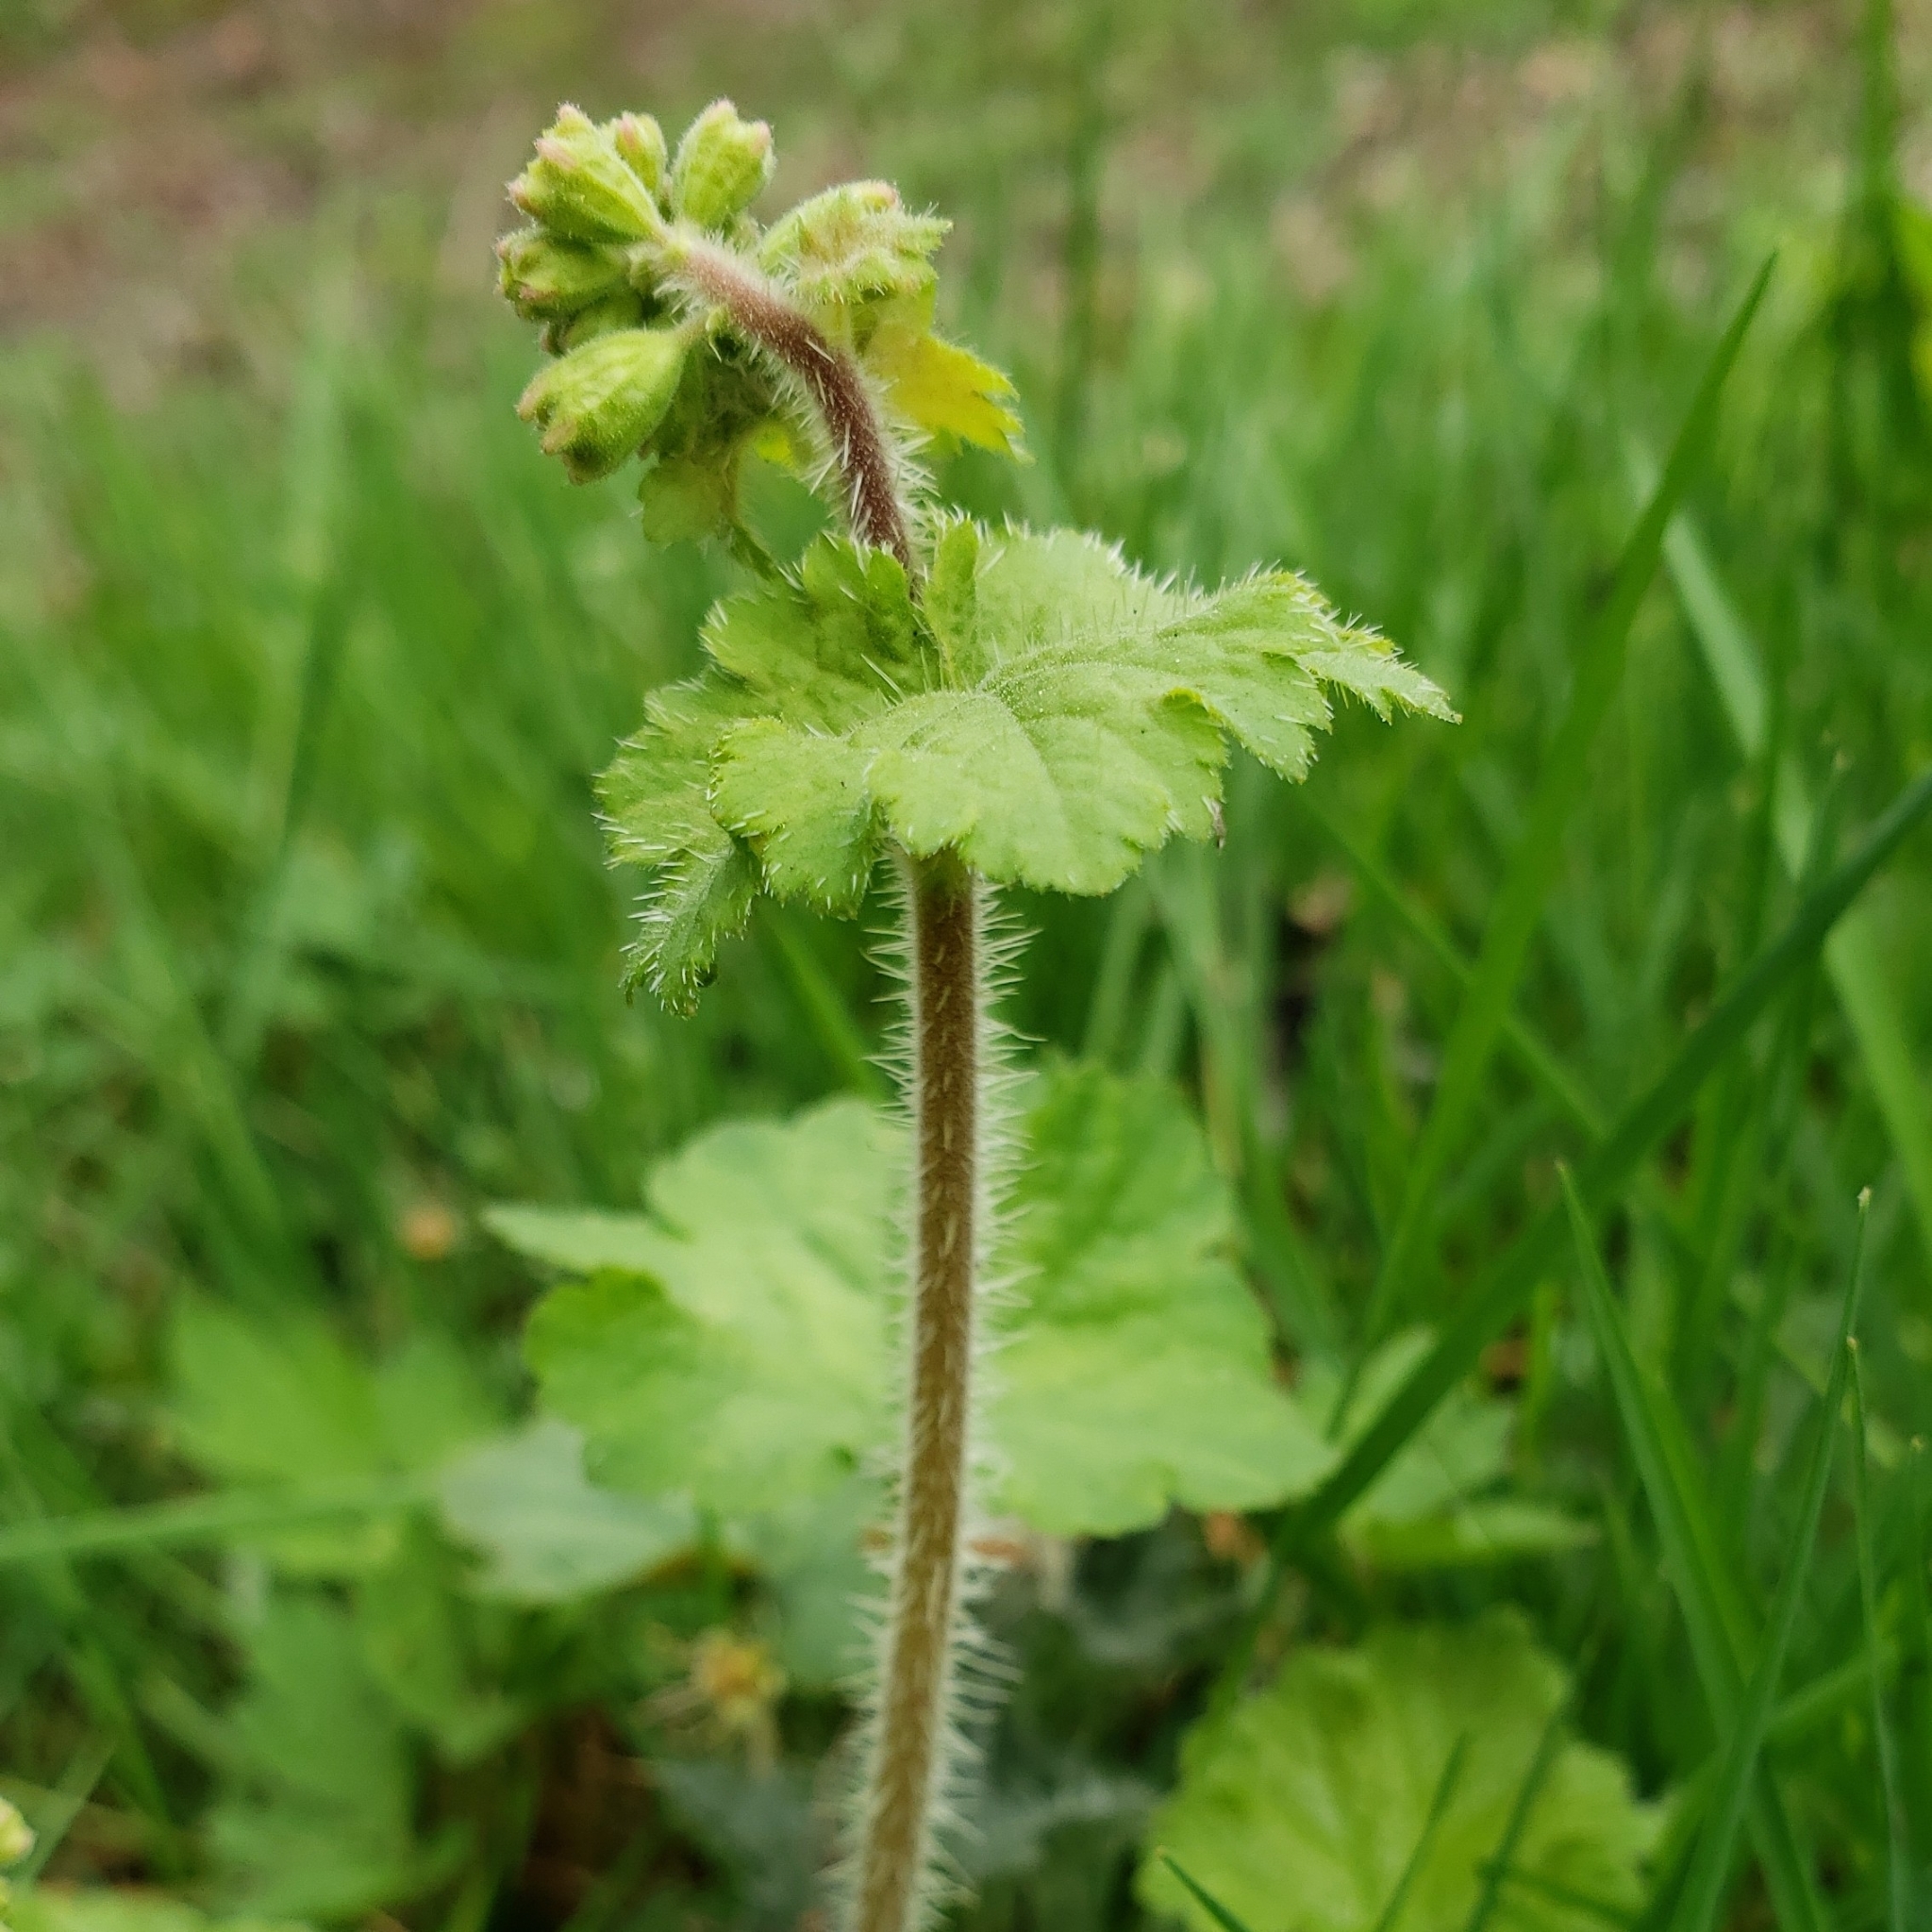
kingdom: Plantae
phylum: Tracheophyta
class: Magnoliopsida
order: Saxifragales
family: Saxifragaceae
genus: Tellima
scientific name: Tellima grandiflora
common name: Fringecups
